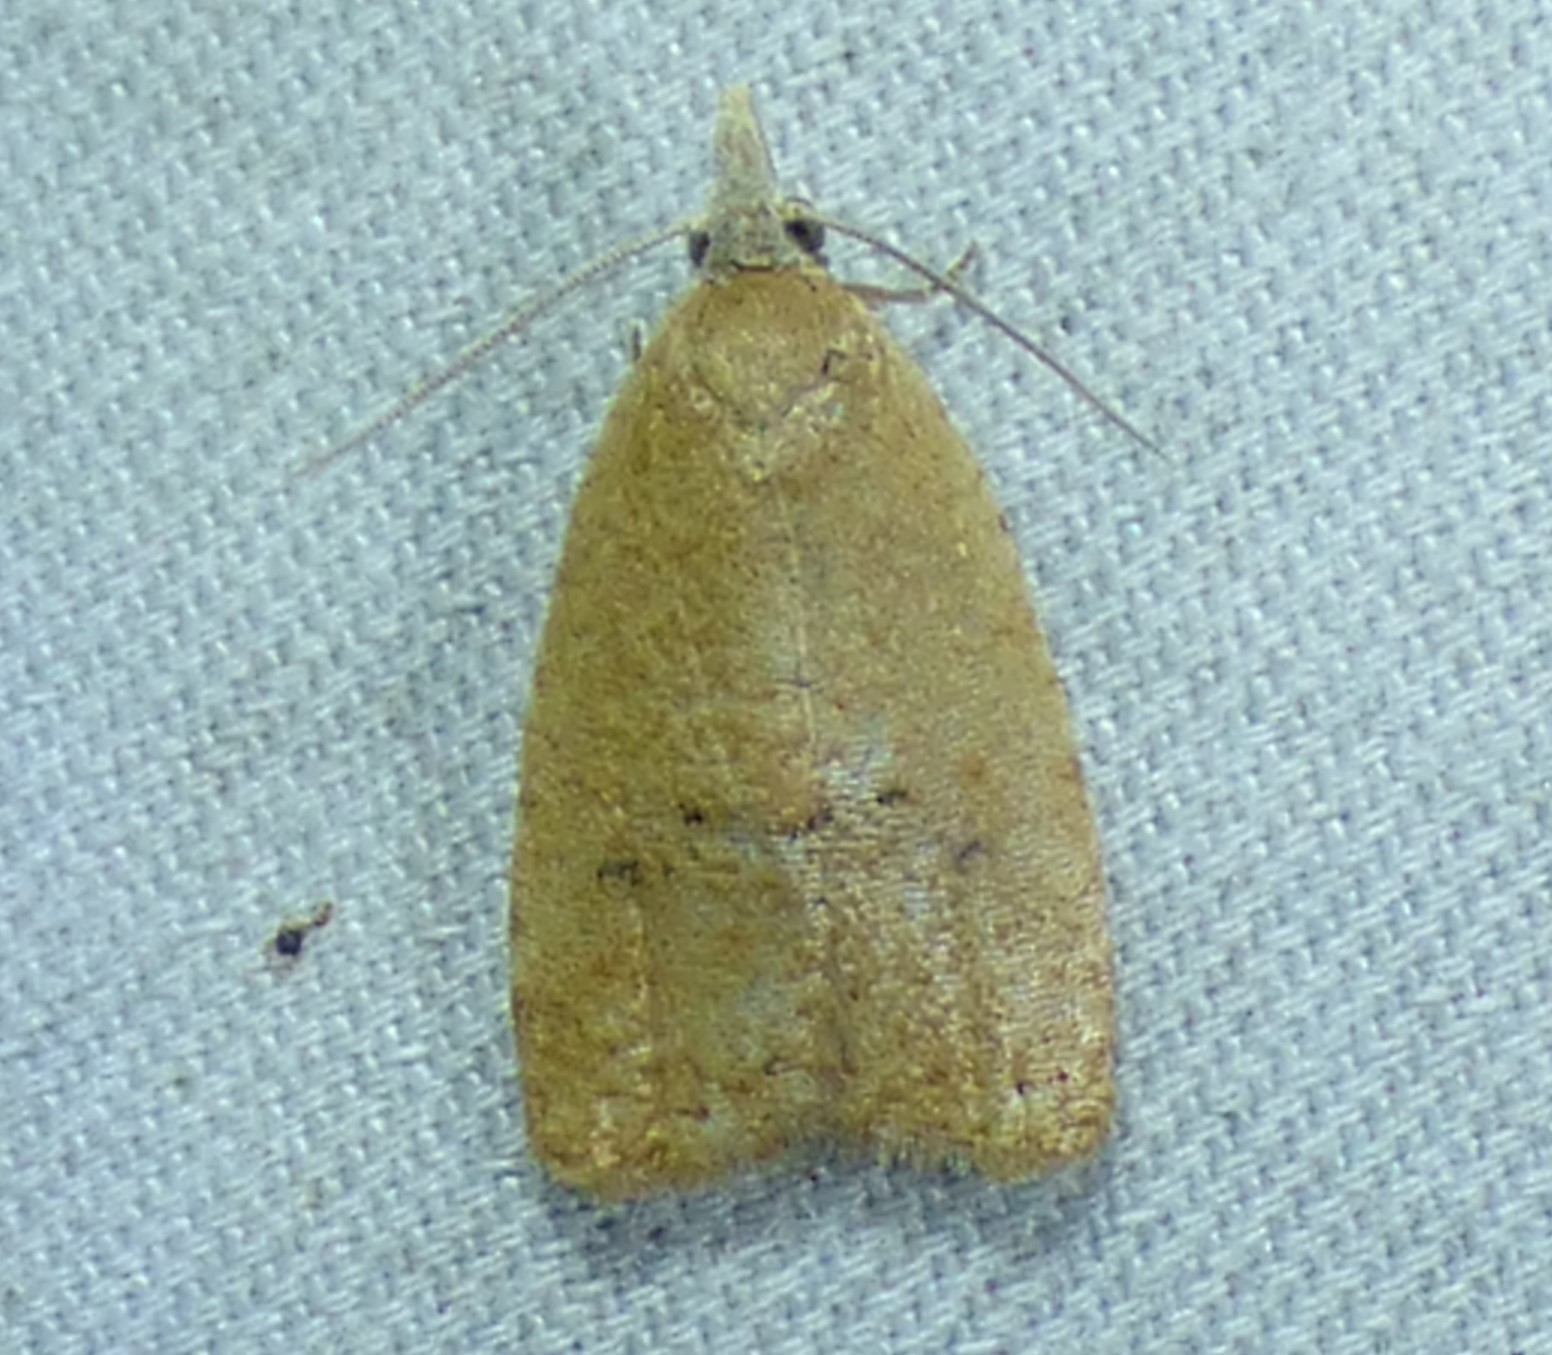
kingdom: Animalia
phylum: Arthropoda
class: Insecta
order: Lepidoptera
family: Tortricidae
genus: Sparganothoides
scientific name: Sparganothoides lentiginosana
